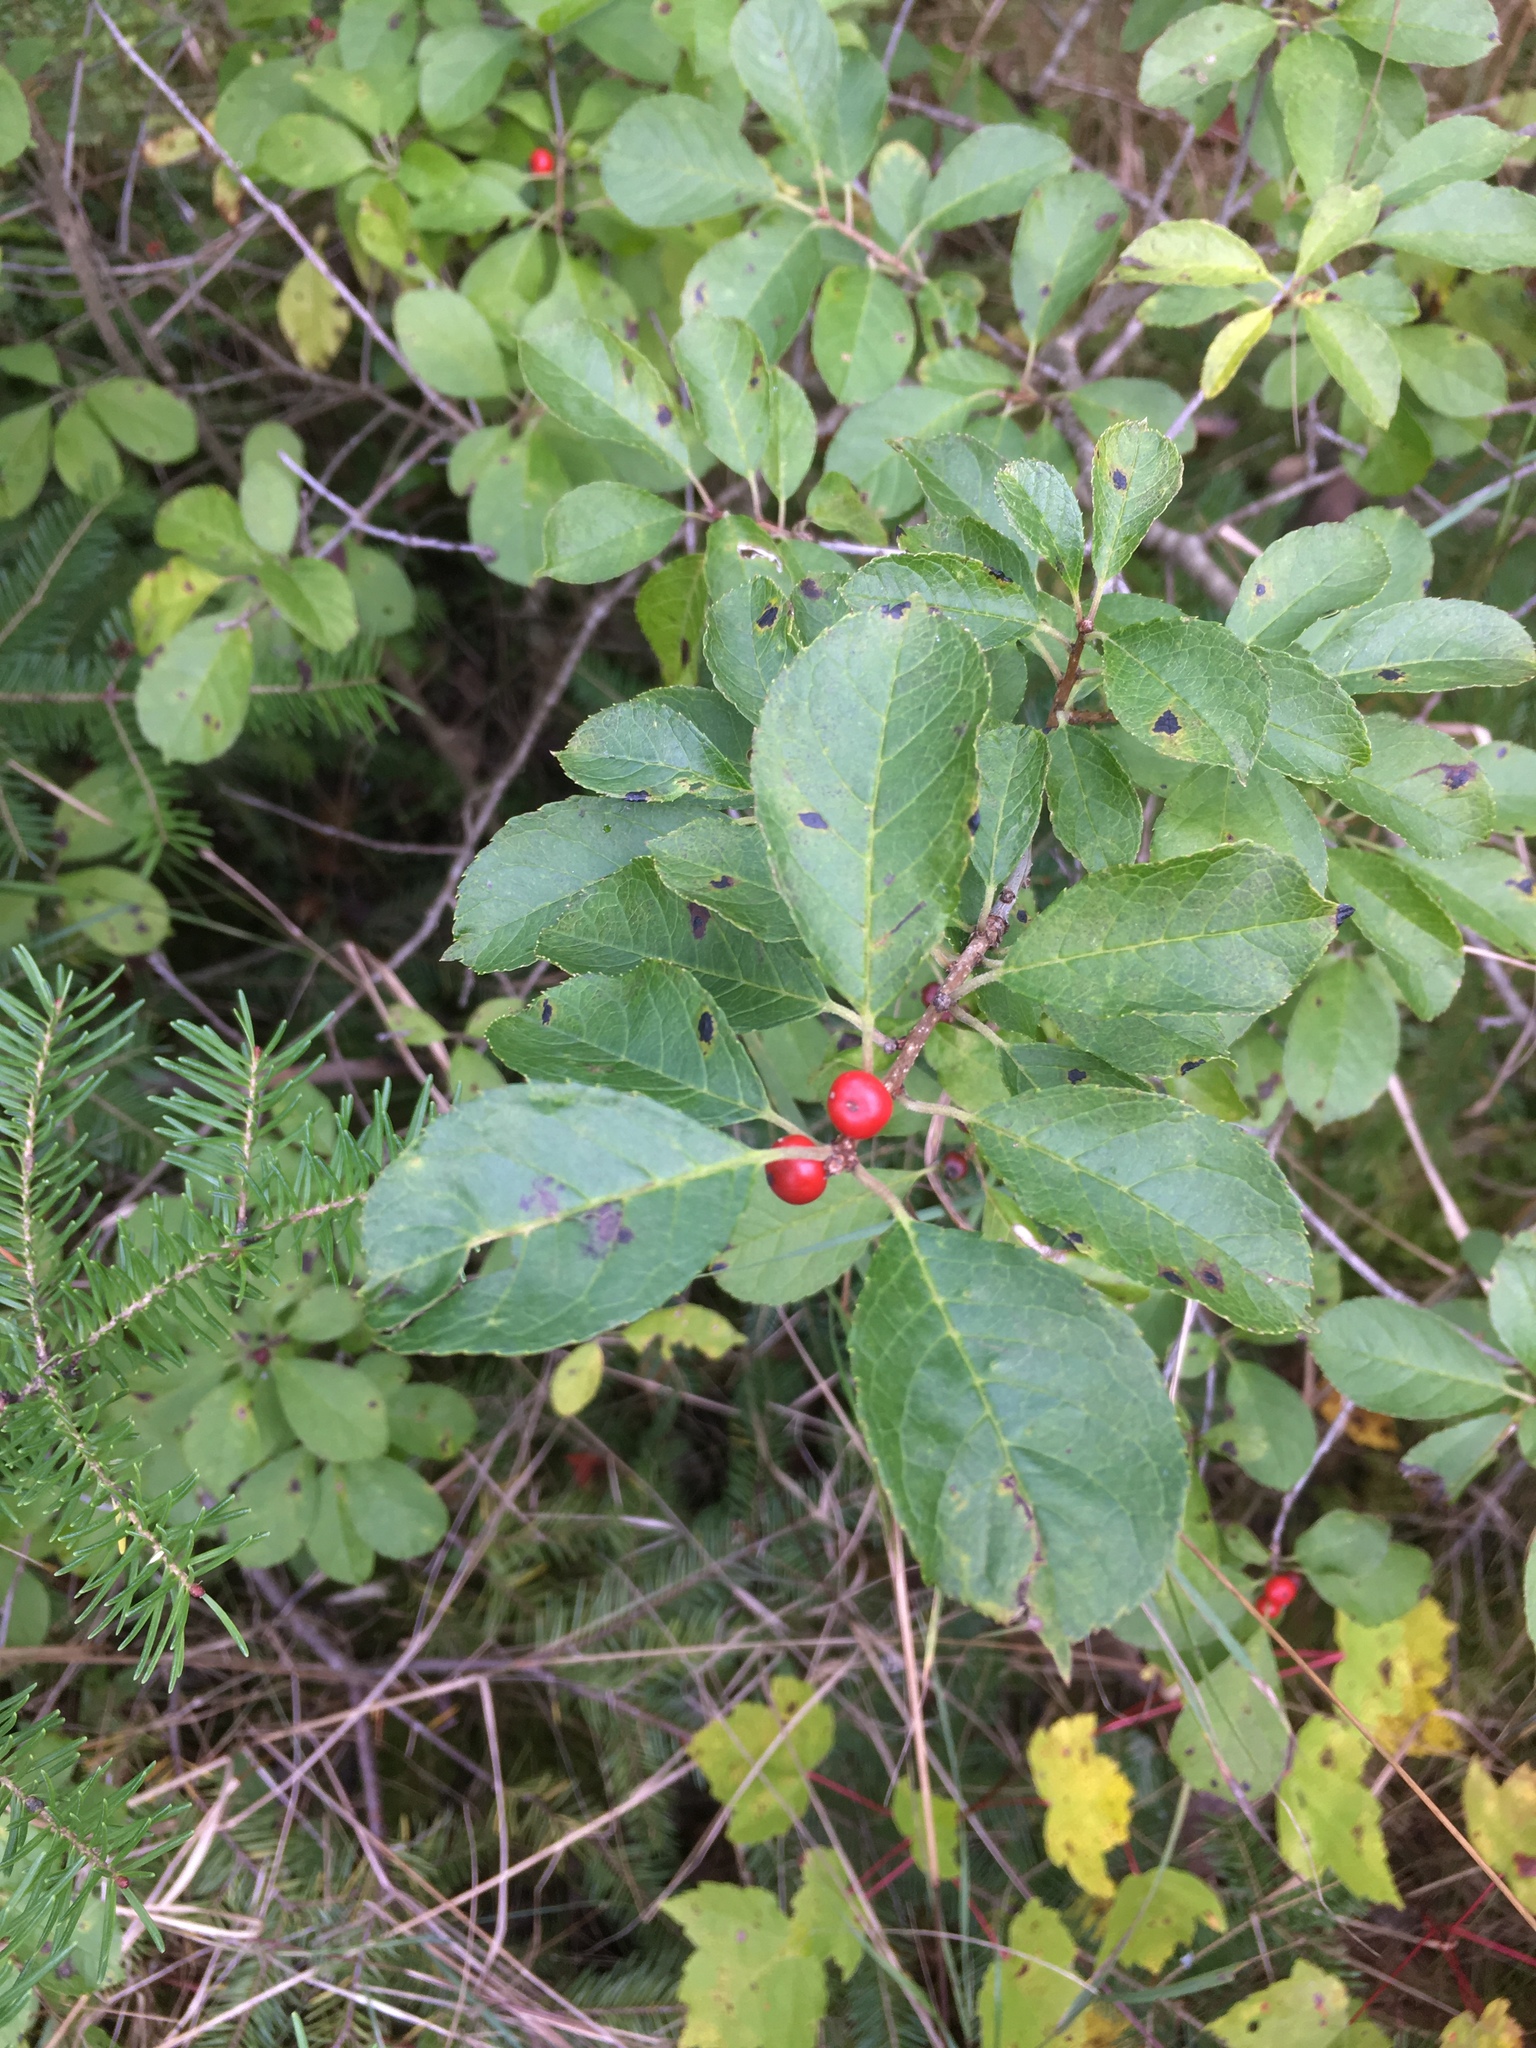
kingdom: Plantae
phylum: Tracheophyta
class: Magnoliopsida
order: Aquifoliales
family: Aquifoliaceae
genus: Ilex
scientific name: Ilex verticillata
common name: Virginia winterberry
